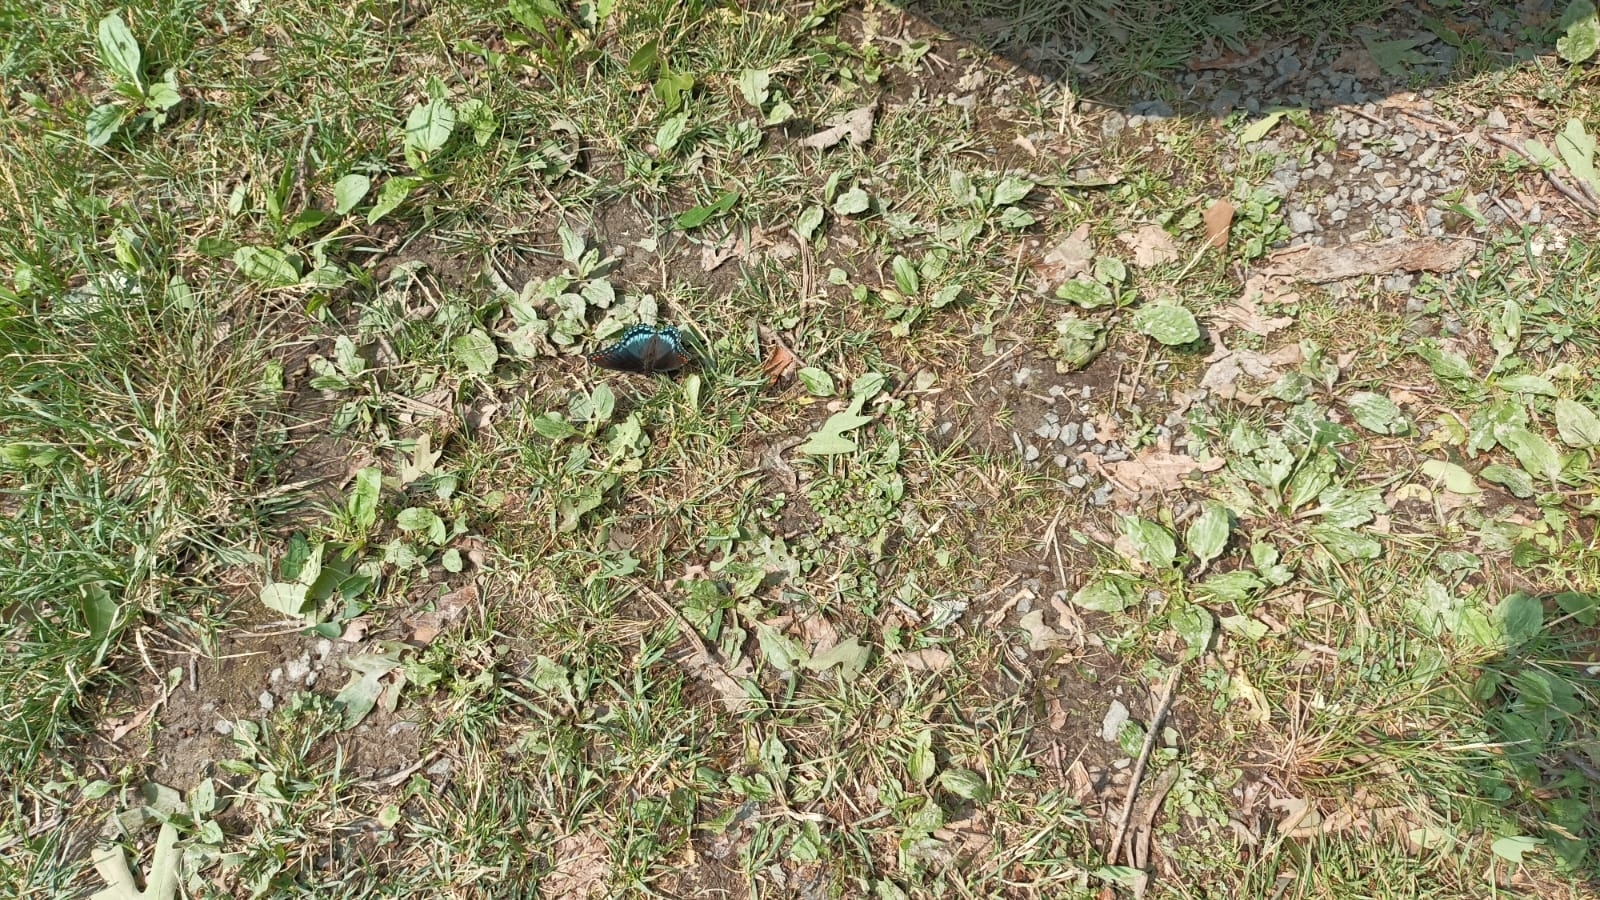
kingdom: Animalia
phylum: Arthropoda
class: Insecta
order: Lepidoptera
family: Nymphalidae
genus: Limenitis
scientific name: Limenitis arthemis
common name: Red-spotted admiral
